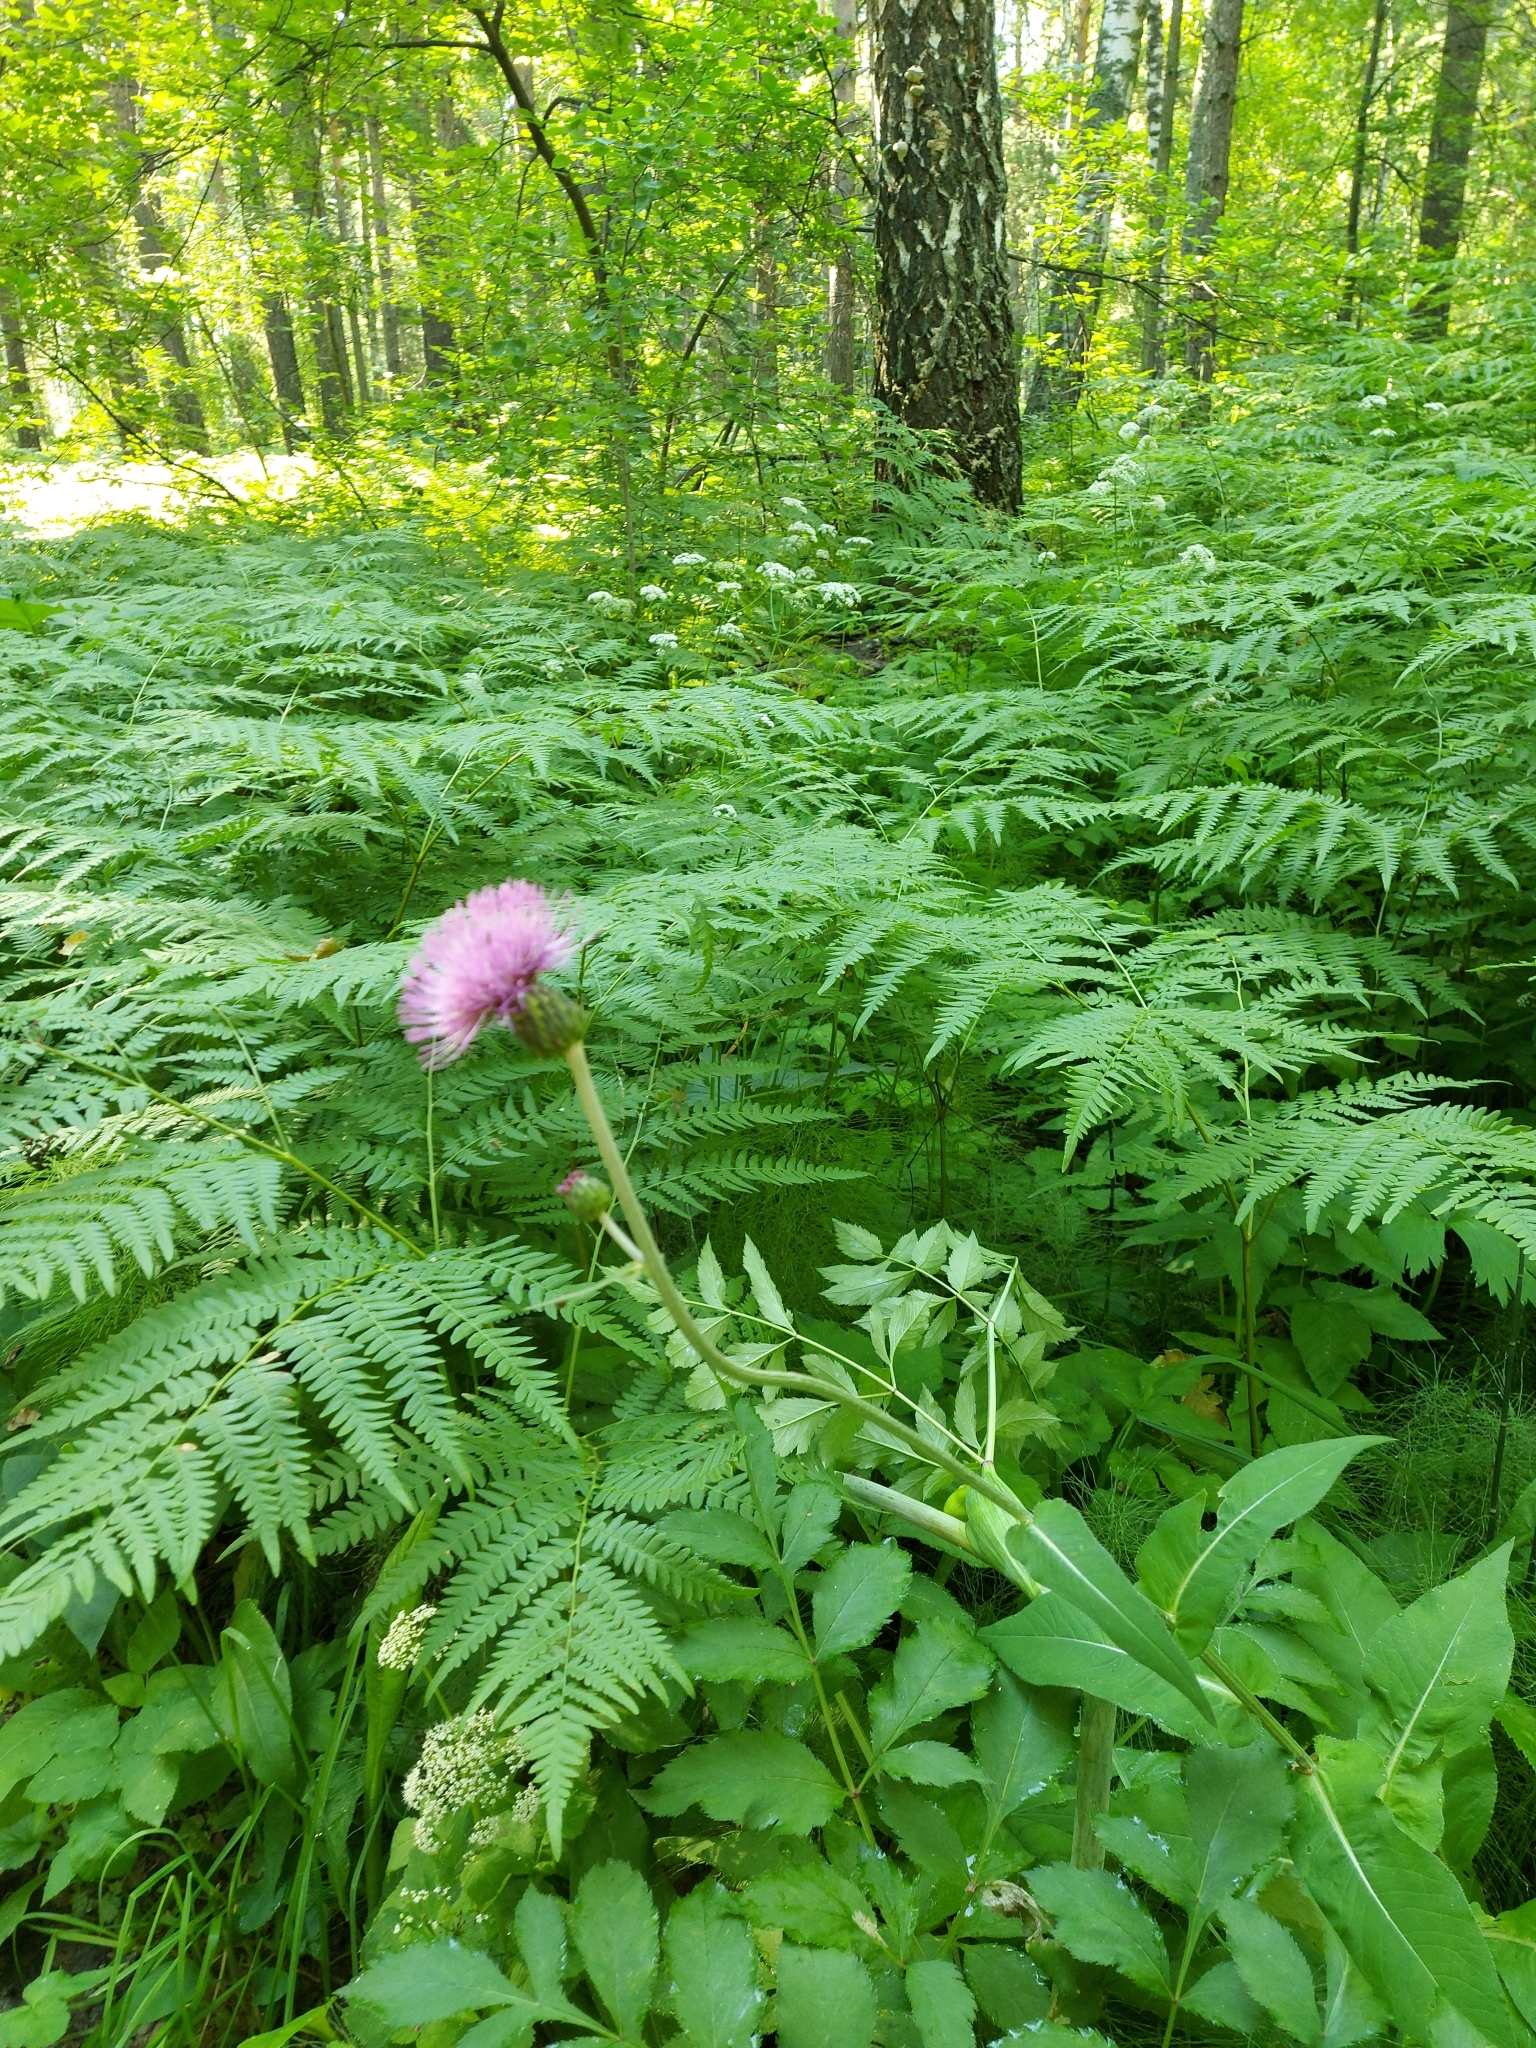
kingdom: Plantae
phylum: Tracheophyta
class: Magnoliopsida
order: Asterales
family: Asteraceae
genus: Cirsium
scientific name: Cirsium heterophyllum
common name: Melancholy thistle
